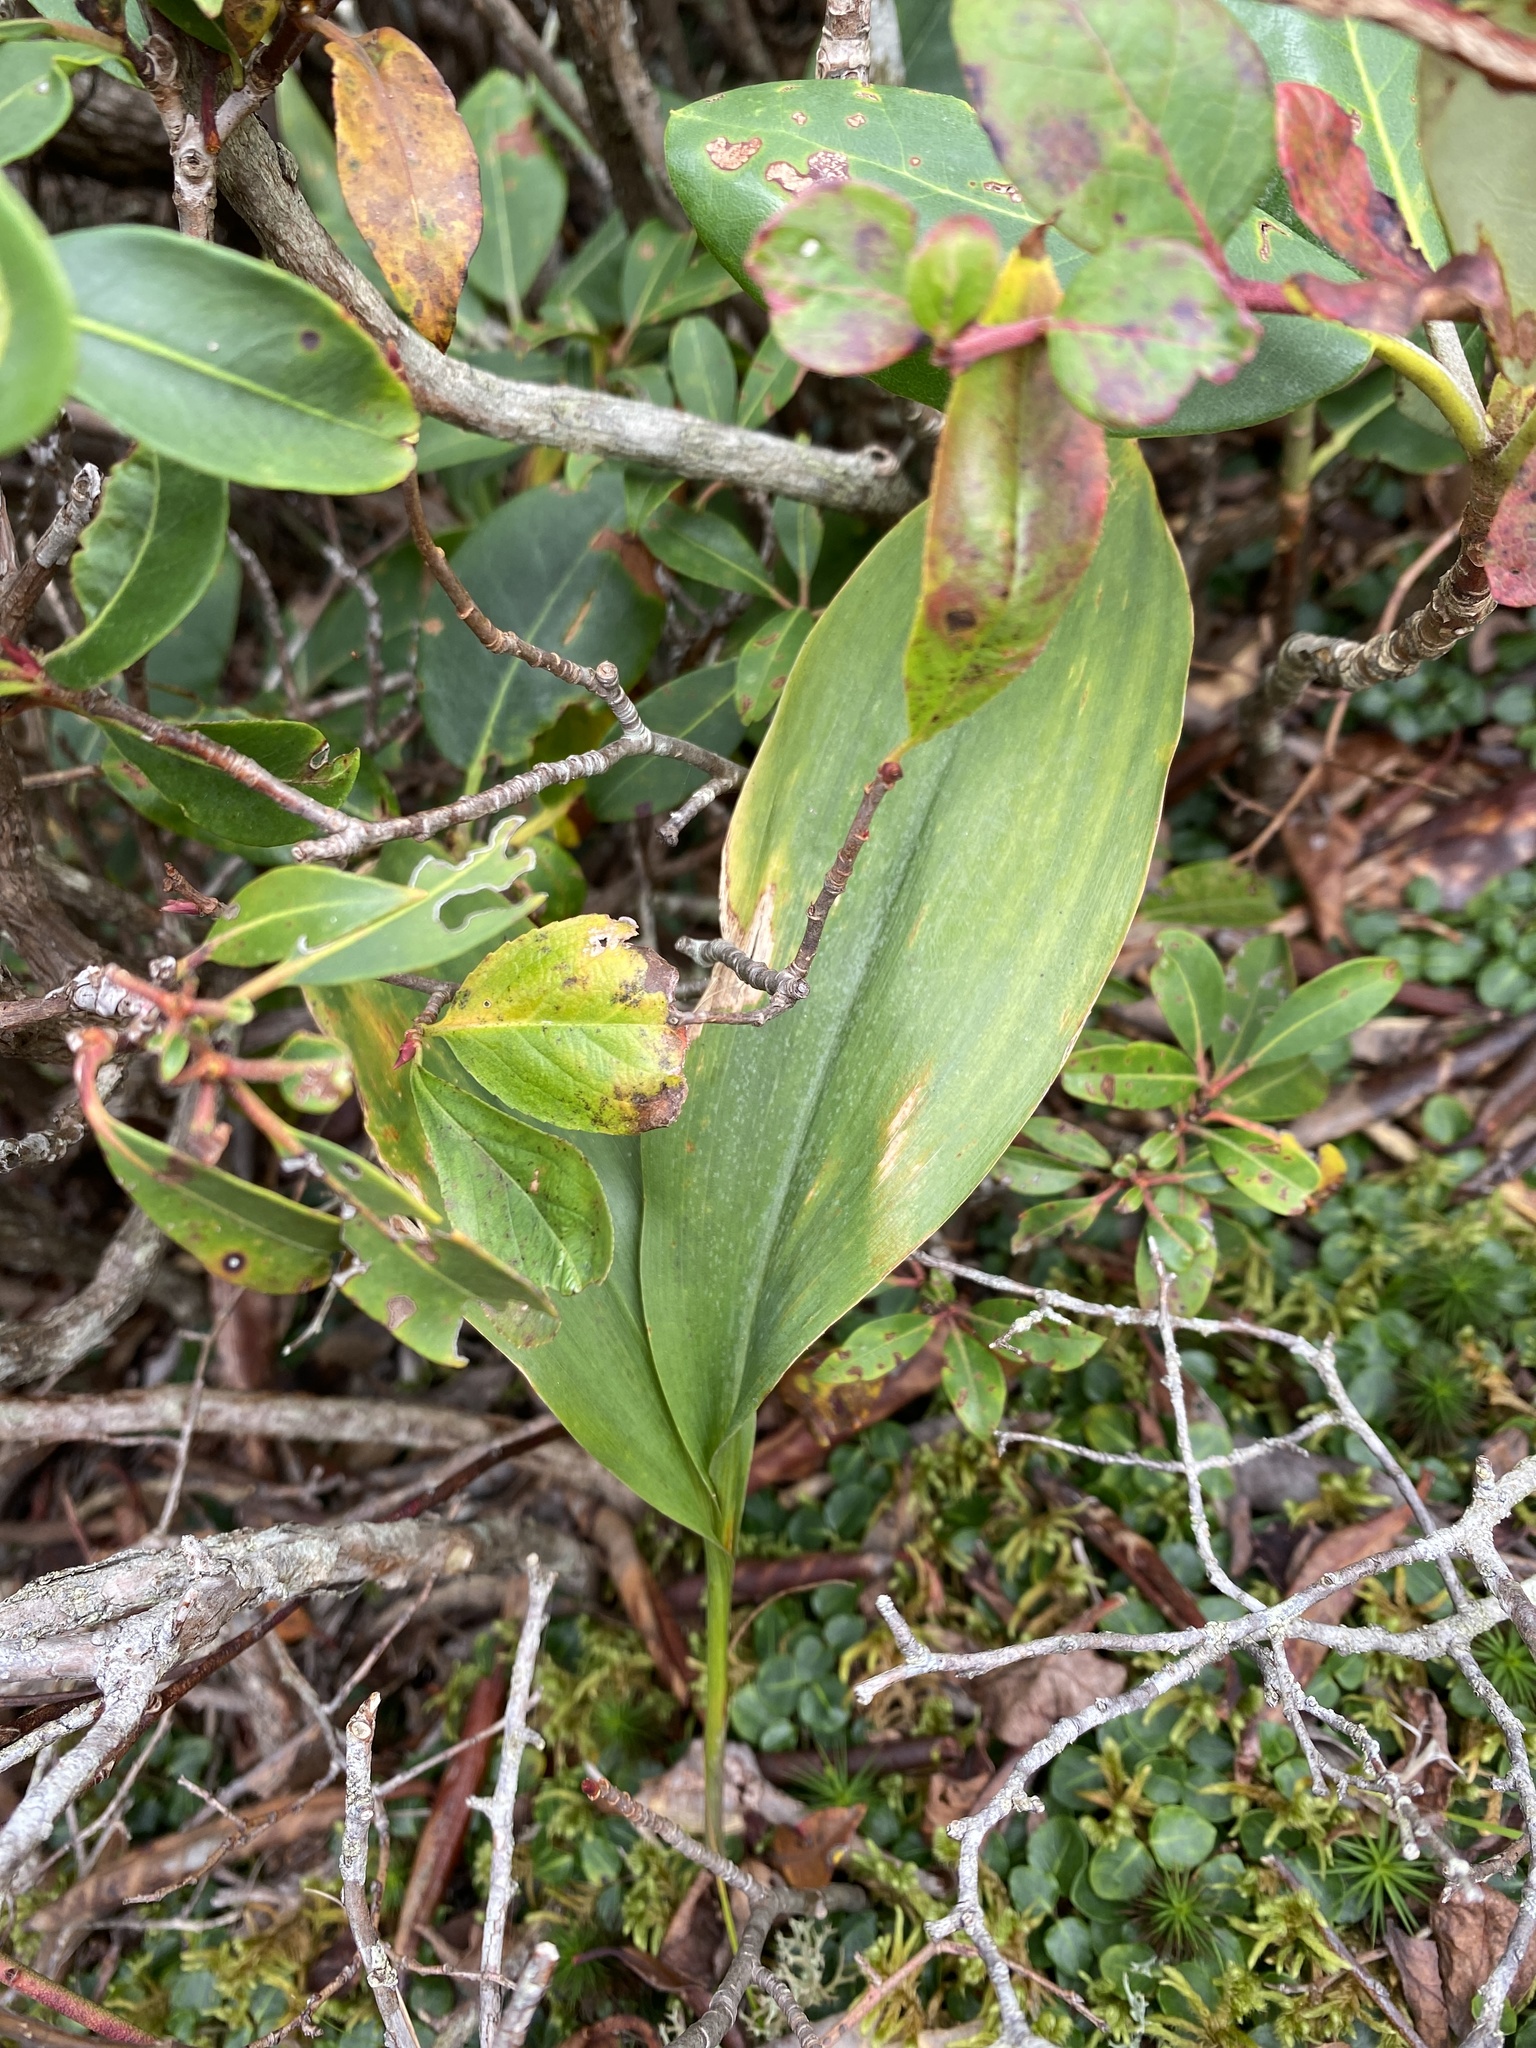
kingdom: Plantae
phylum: Tracheophyta
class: Liliopsida
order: Asparagales
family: Asparagaceae
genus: Convallaria
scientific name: Convallaria pseudomajalis
